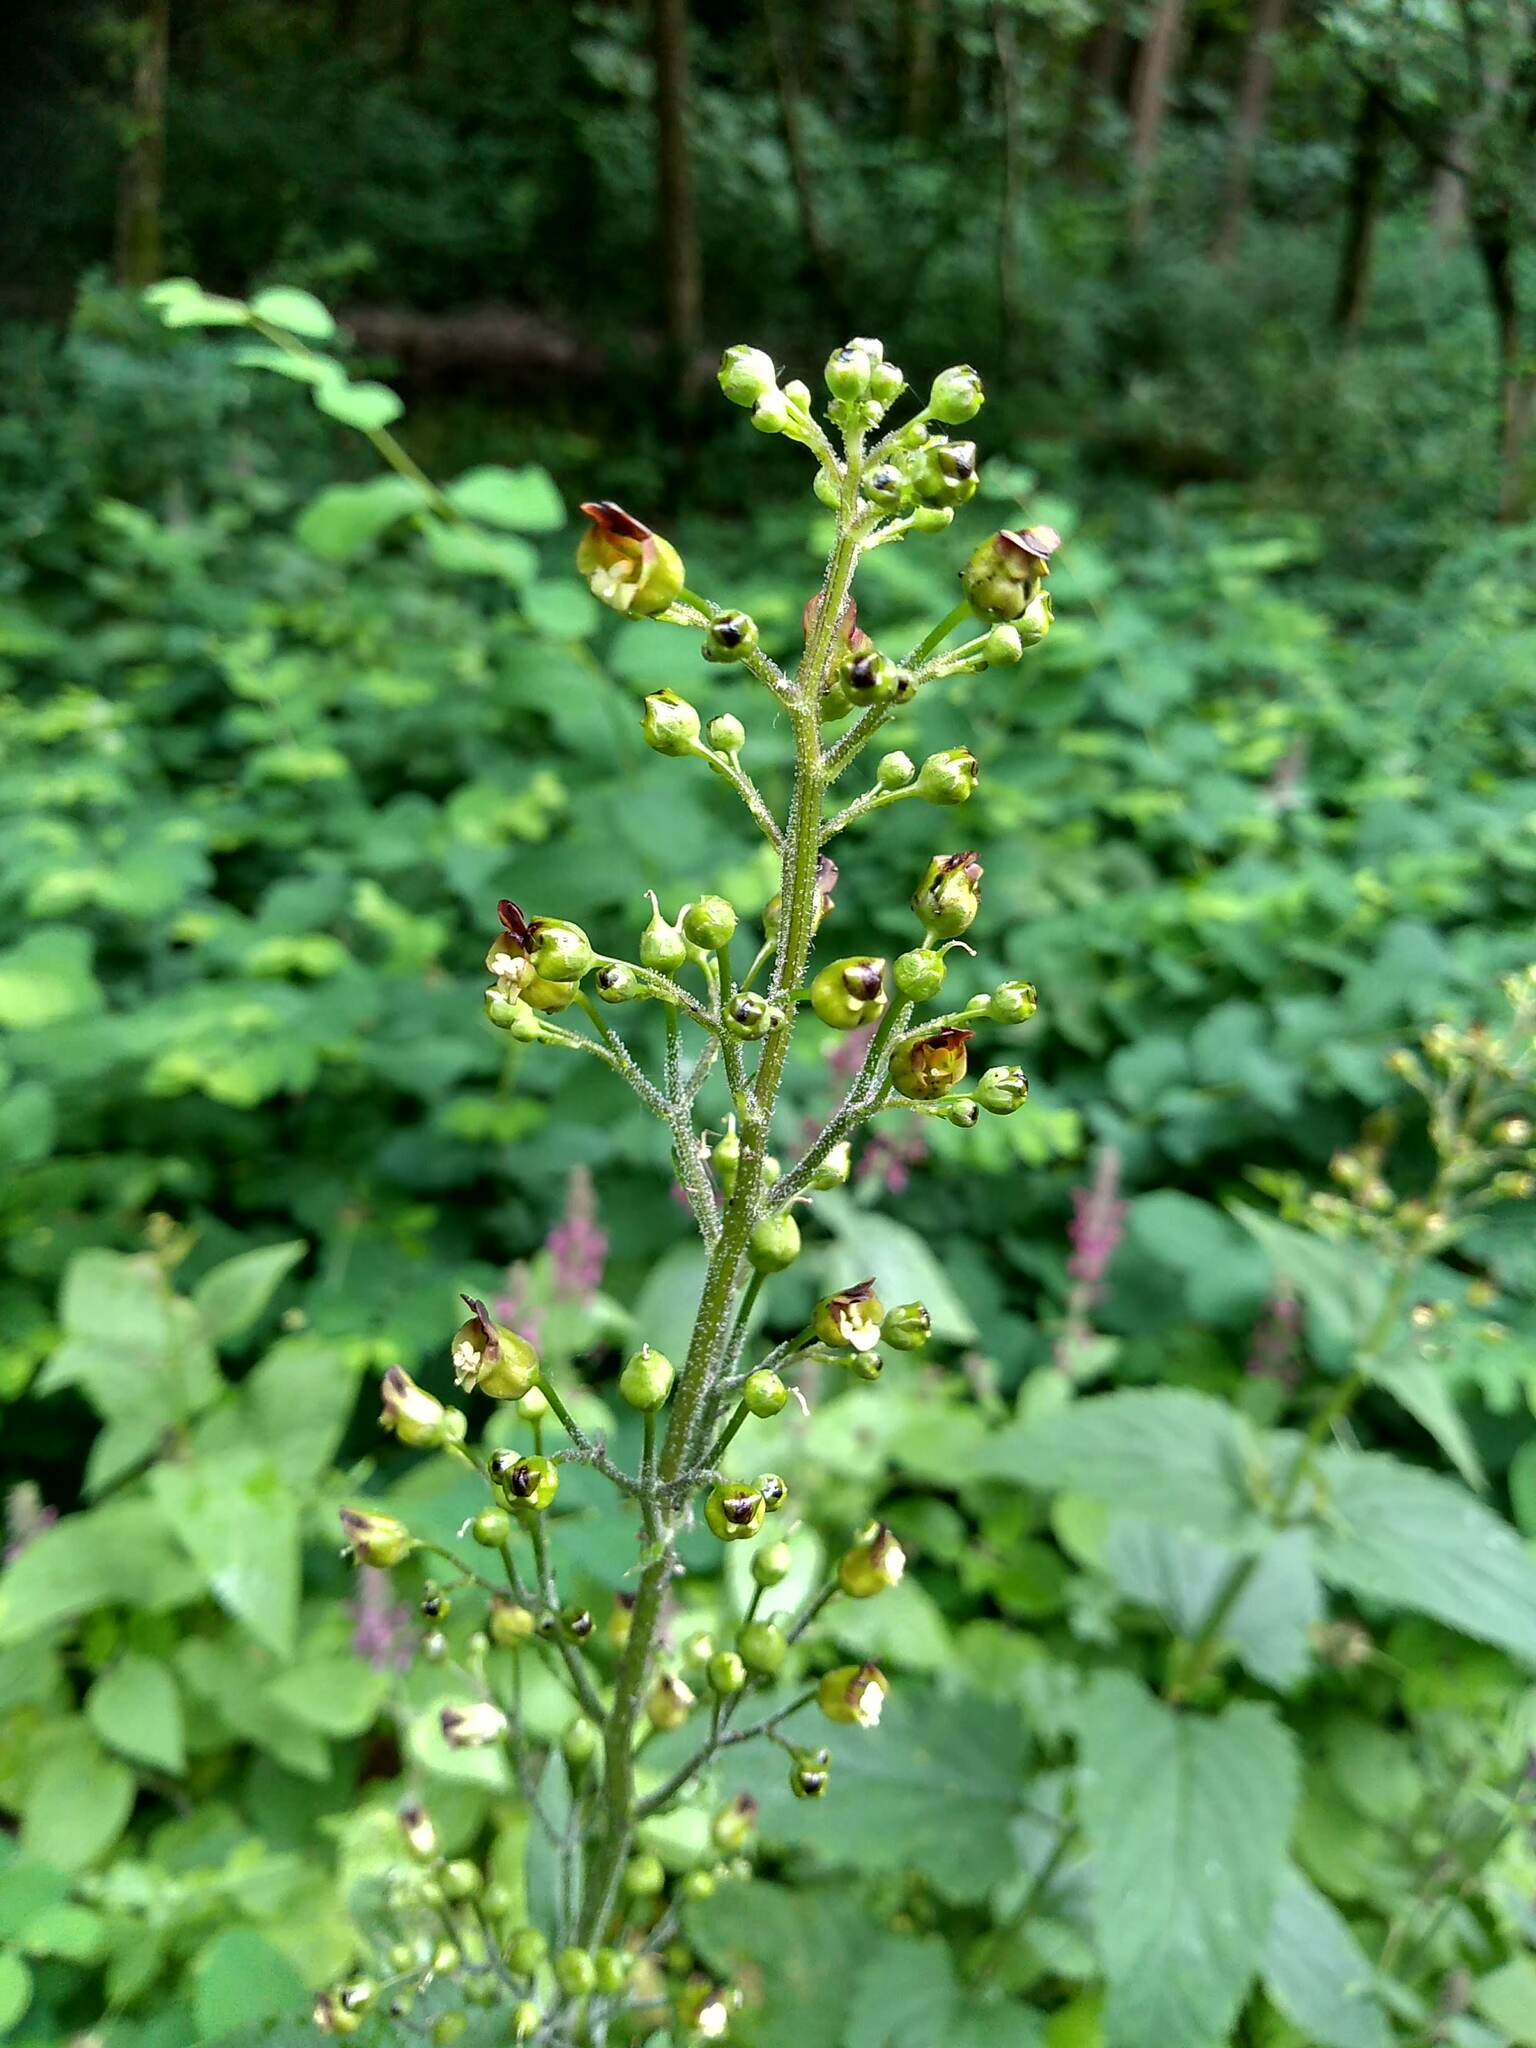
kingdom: Plantae
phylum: Tracheophyta
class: Magnoliopsida
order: Lamiales
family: Scrophulariaceae
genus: Scrophularia
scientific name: Scrophularia auriculata
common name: Water betony
